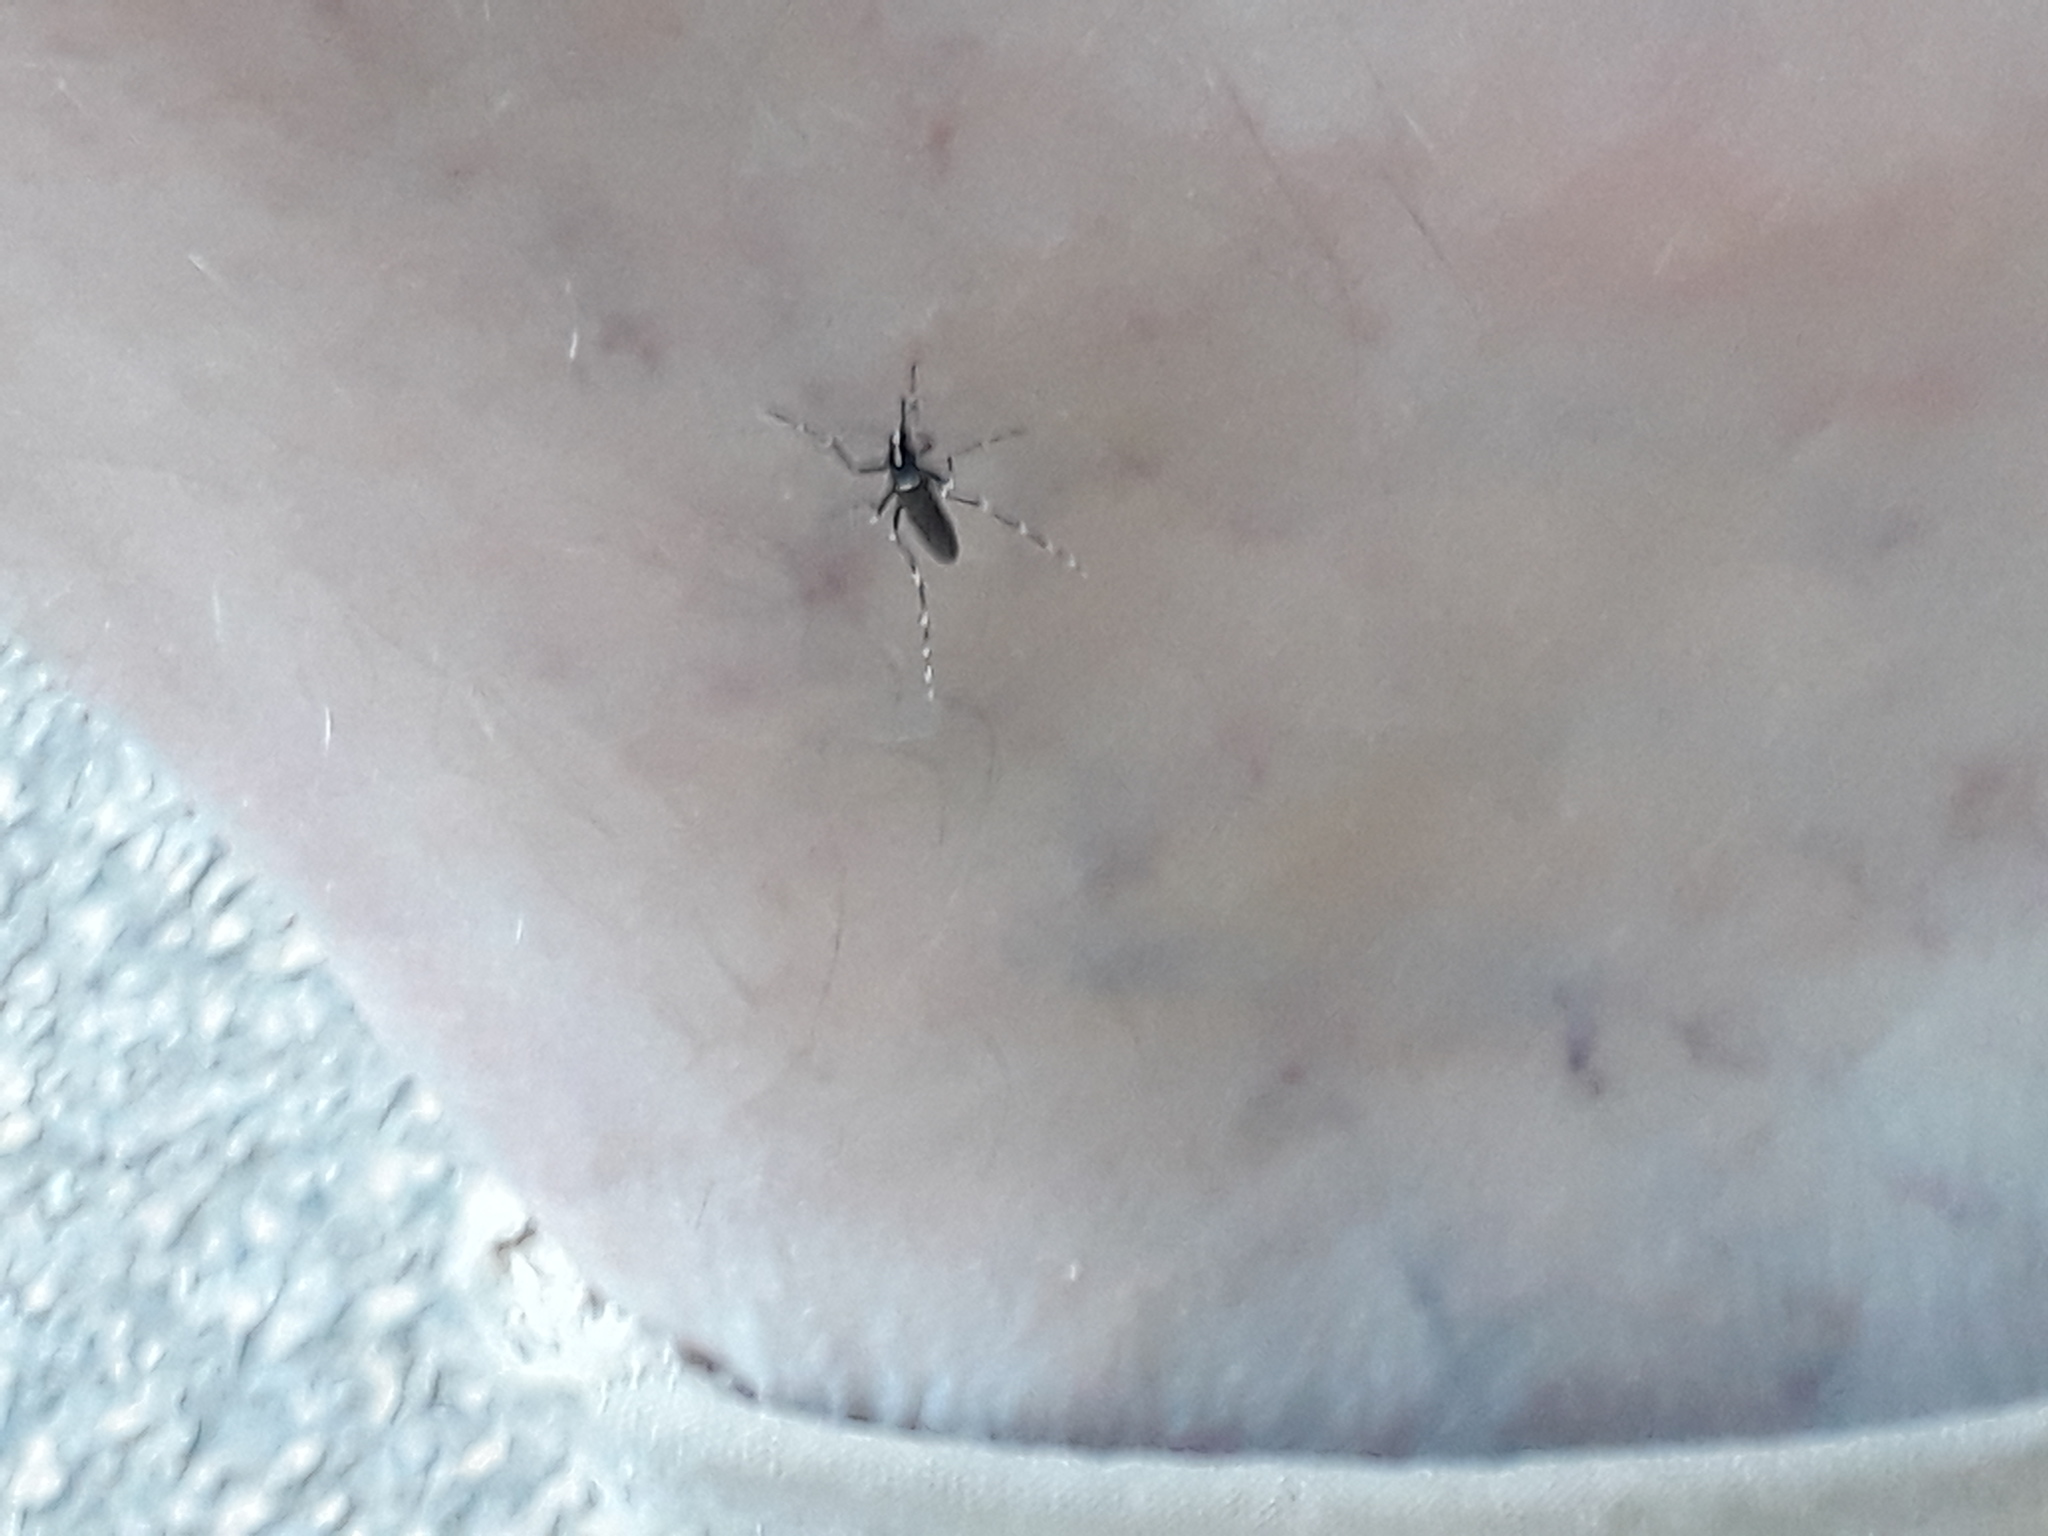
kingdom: Animalia
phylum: Arthropoda
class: Insecta
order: Diptera
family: Culicidae
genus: Aedes
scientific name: Aedes albopictus
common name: Tiger mosquito
